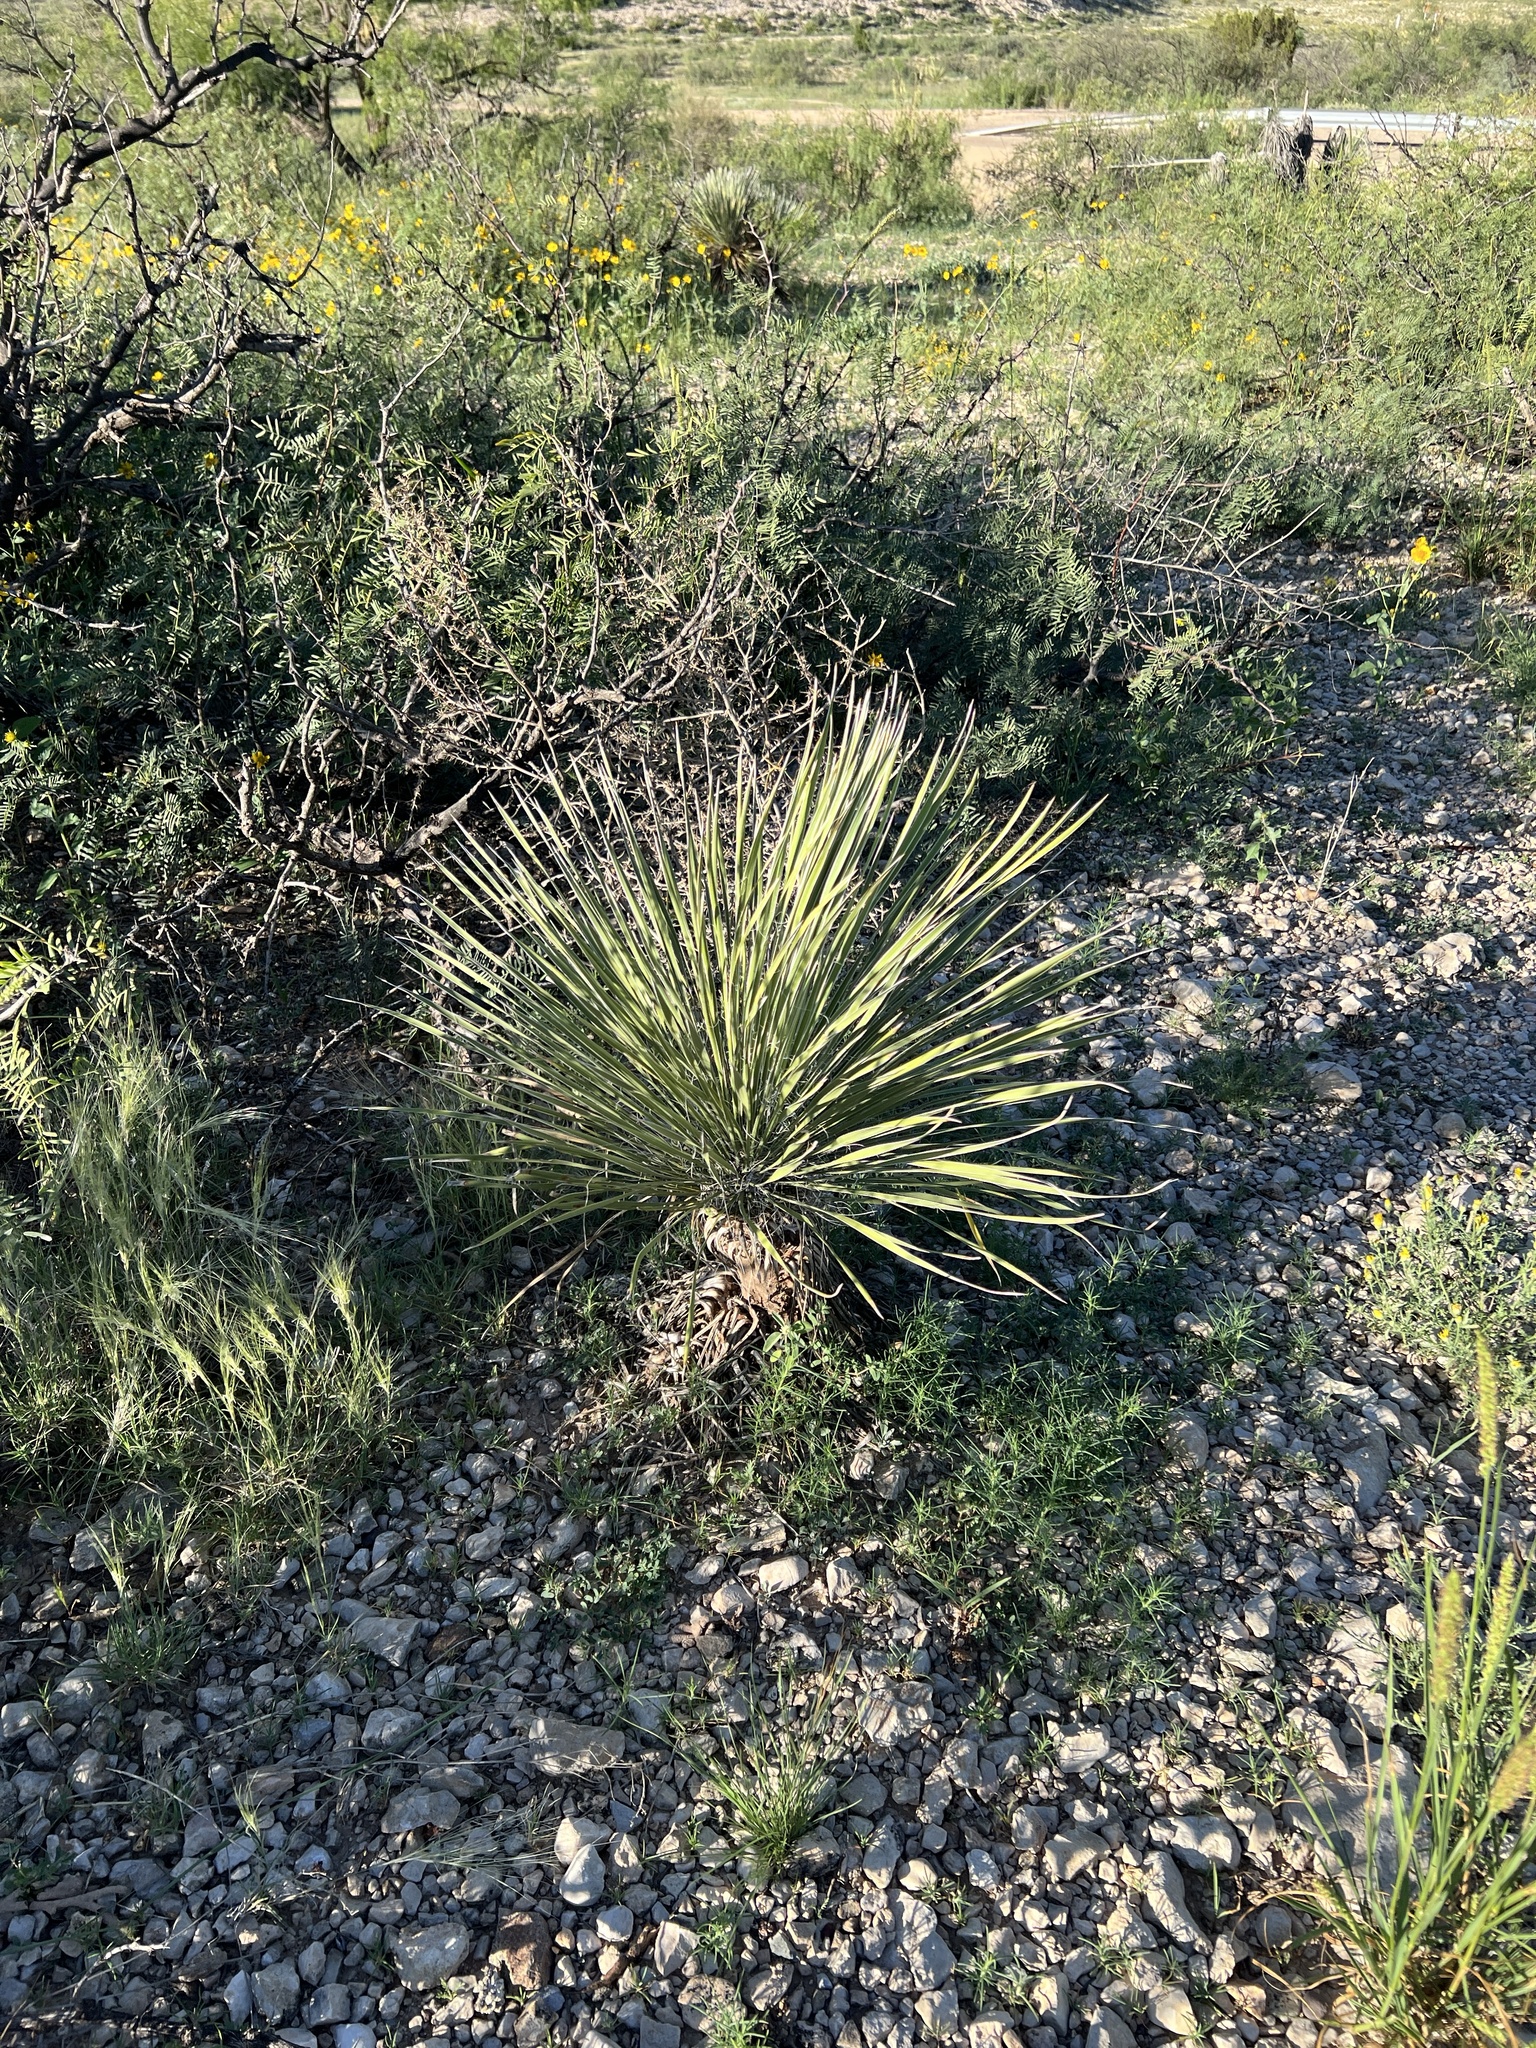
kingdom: Plantae
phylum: Tracheophyta
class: Liliopsida
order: Asparagales
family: Asparagaceae
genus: Yucca
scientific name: Yucca elata
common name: Palmella
